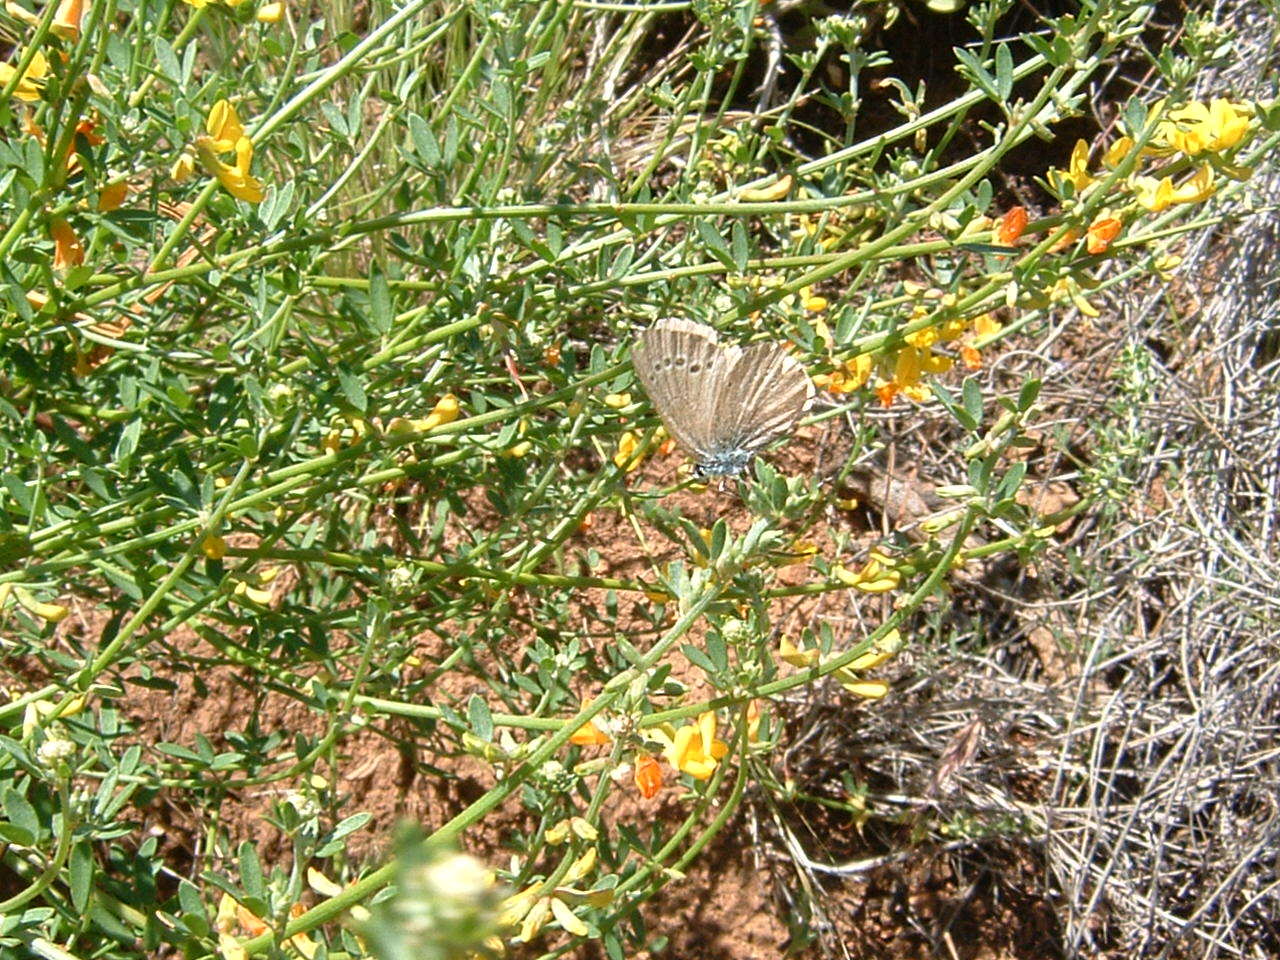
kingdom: Animalia
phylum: Arthropoda
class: Insecta
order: Lepidoptera
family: Lycaenidae
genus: Glaucopsyche
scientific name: Glaucopsyche lygdamus
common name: Silvery blue
